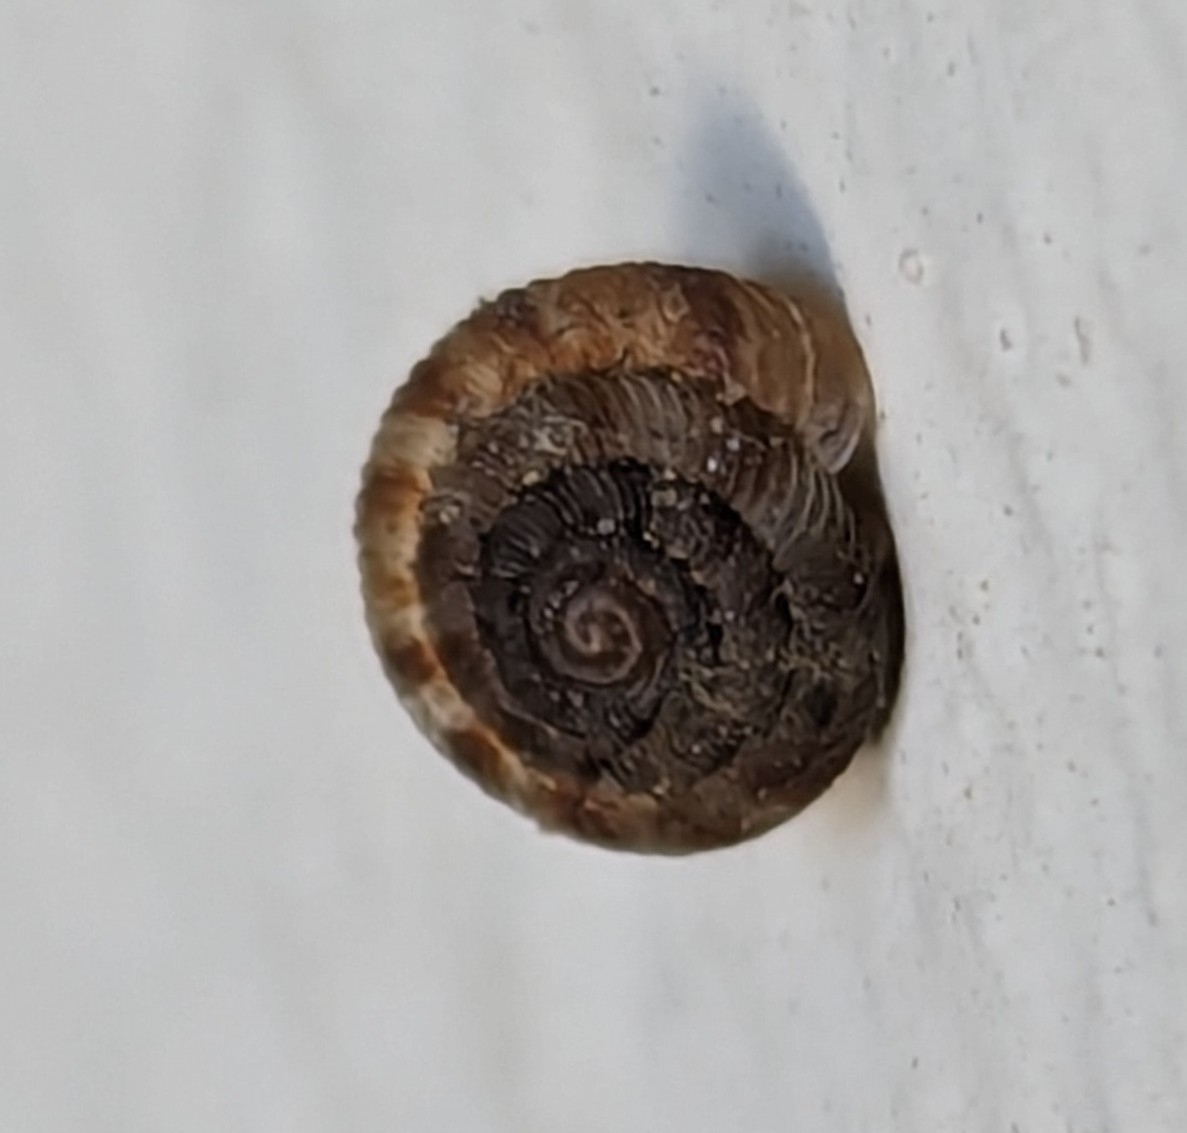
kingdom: Animalia
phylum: Mollusca
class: Gastropoda
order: Stylommatophora
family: Discidae
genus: Discus
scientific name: Discus rotundatus
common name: Rounded snail
